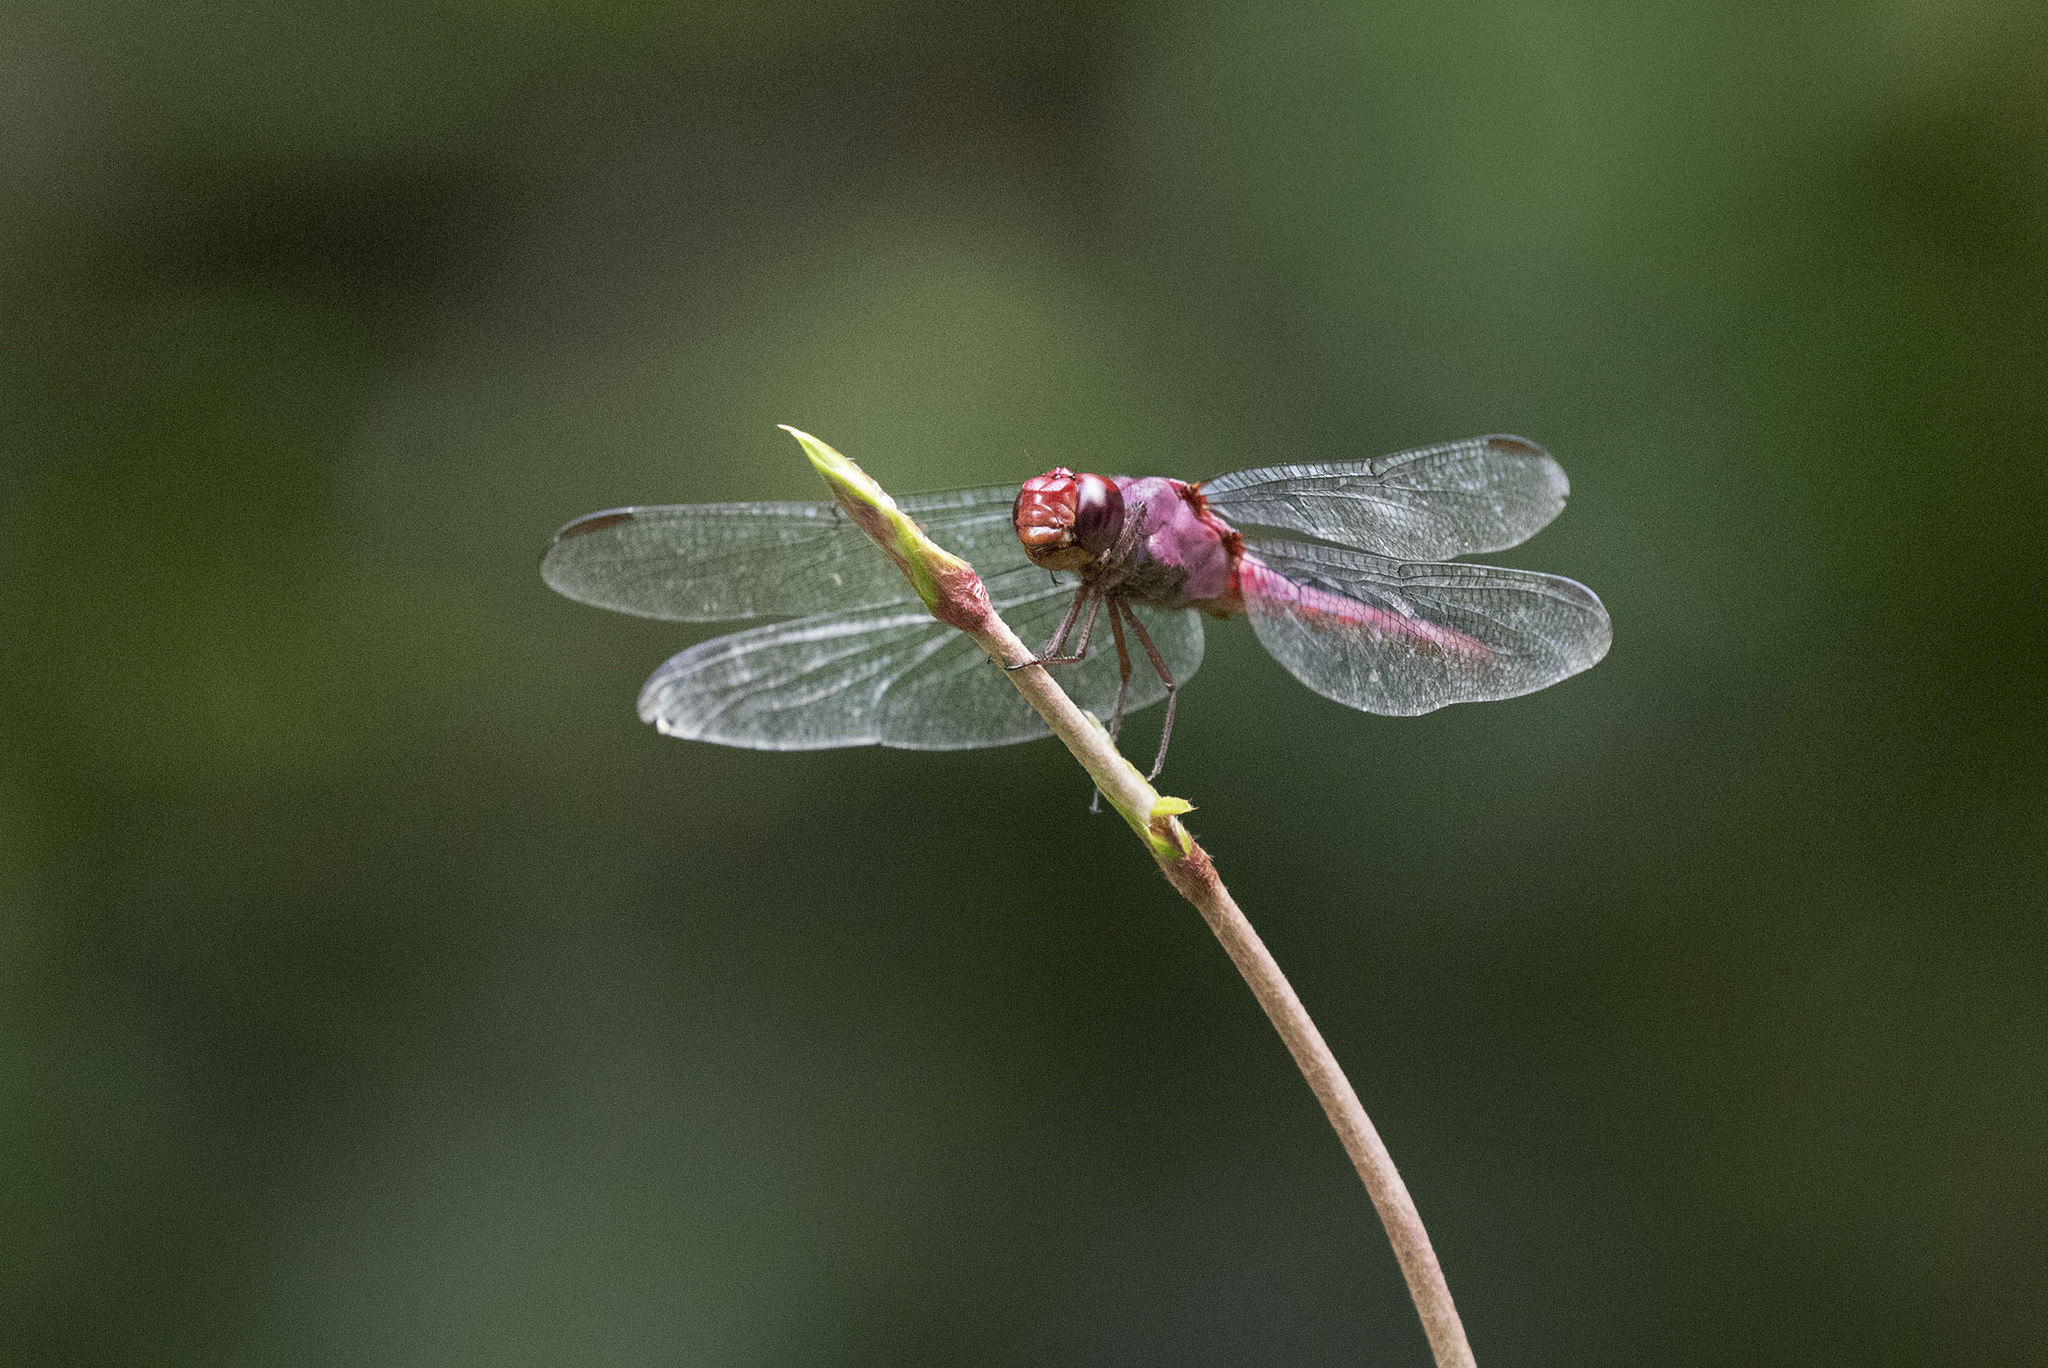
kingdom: Animalia
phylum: Arthropoda
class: Insecta
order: Odonata
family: Libellulidae
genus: Orthemis
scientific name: Orthemis discolor
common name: Carmine skimmer
